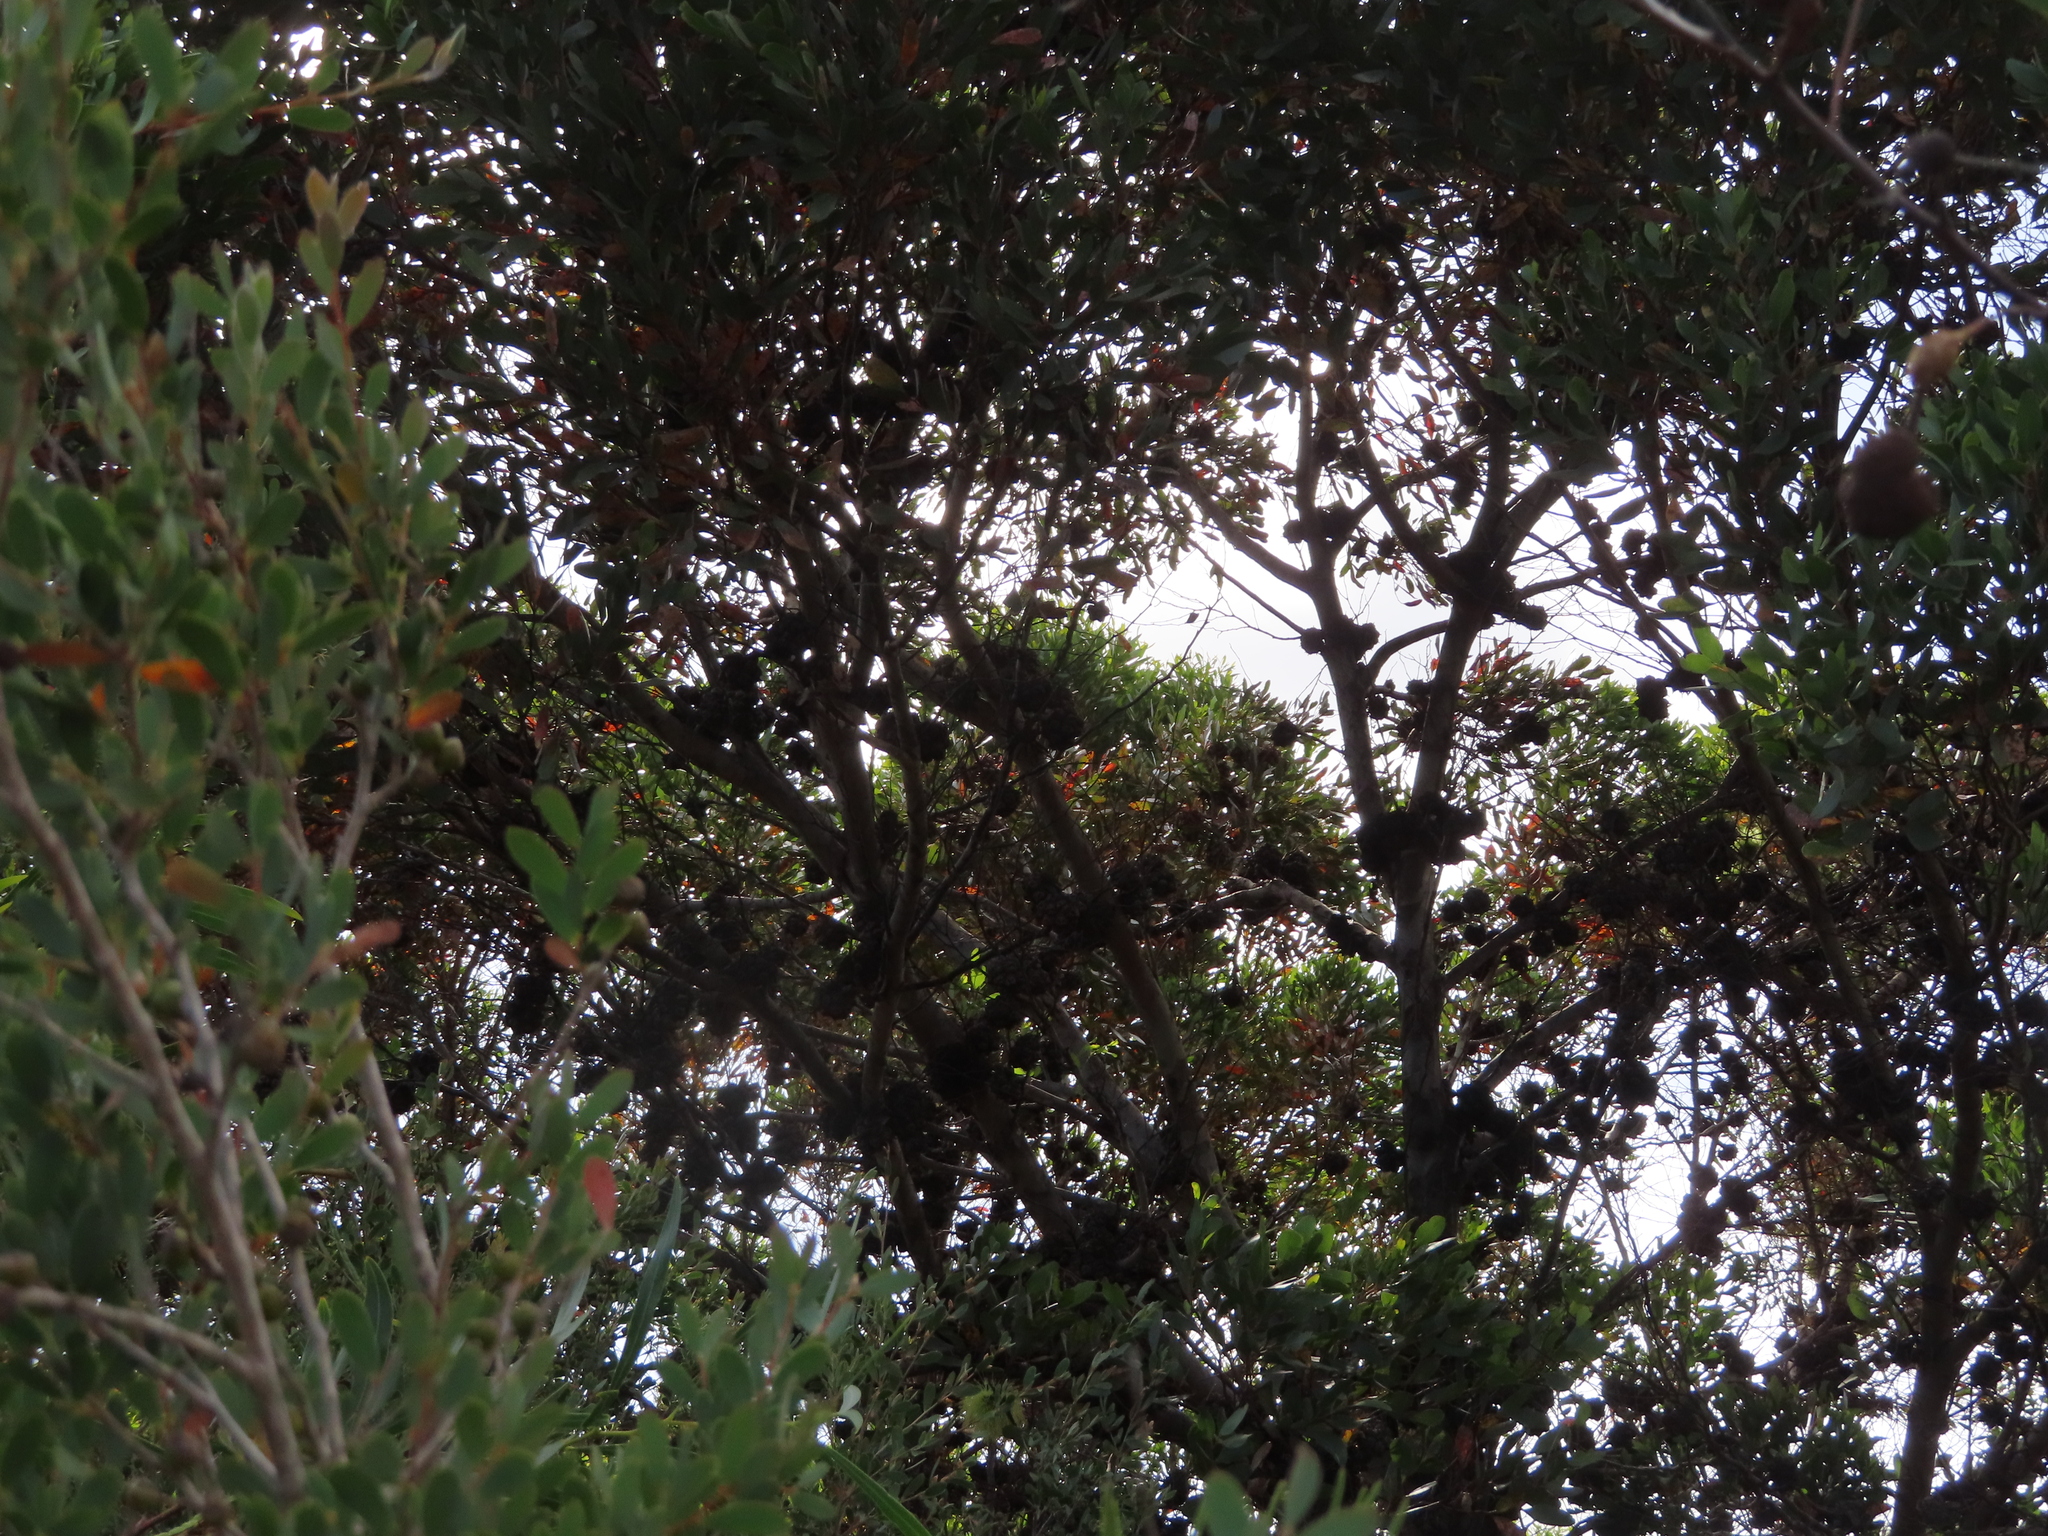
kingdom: Plantae
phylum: Tracheophyta
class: Magnoliopsida
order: Myrtales
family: Myrtaceae
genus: Leptospermum
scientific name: Leptospermum laevigatum
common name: Australian teatree
